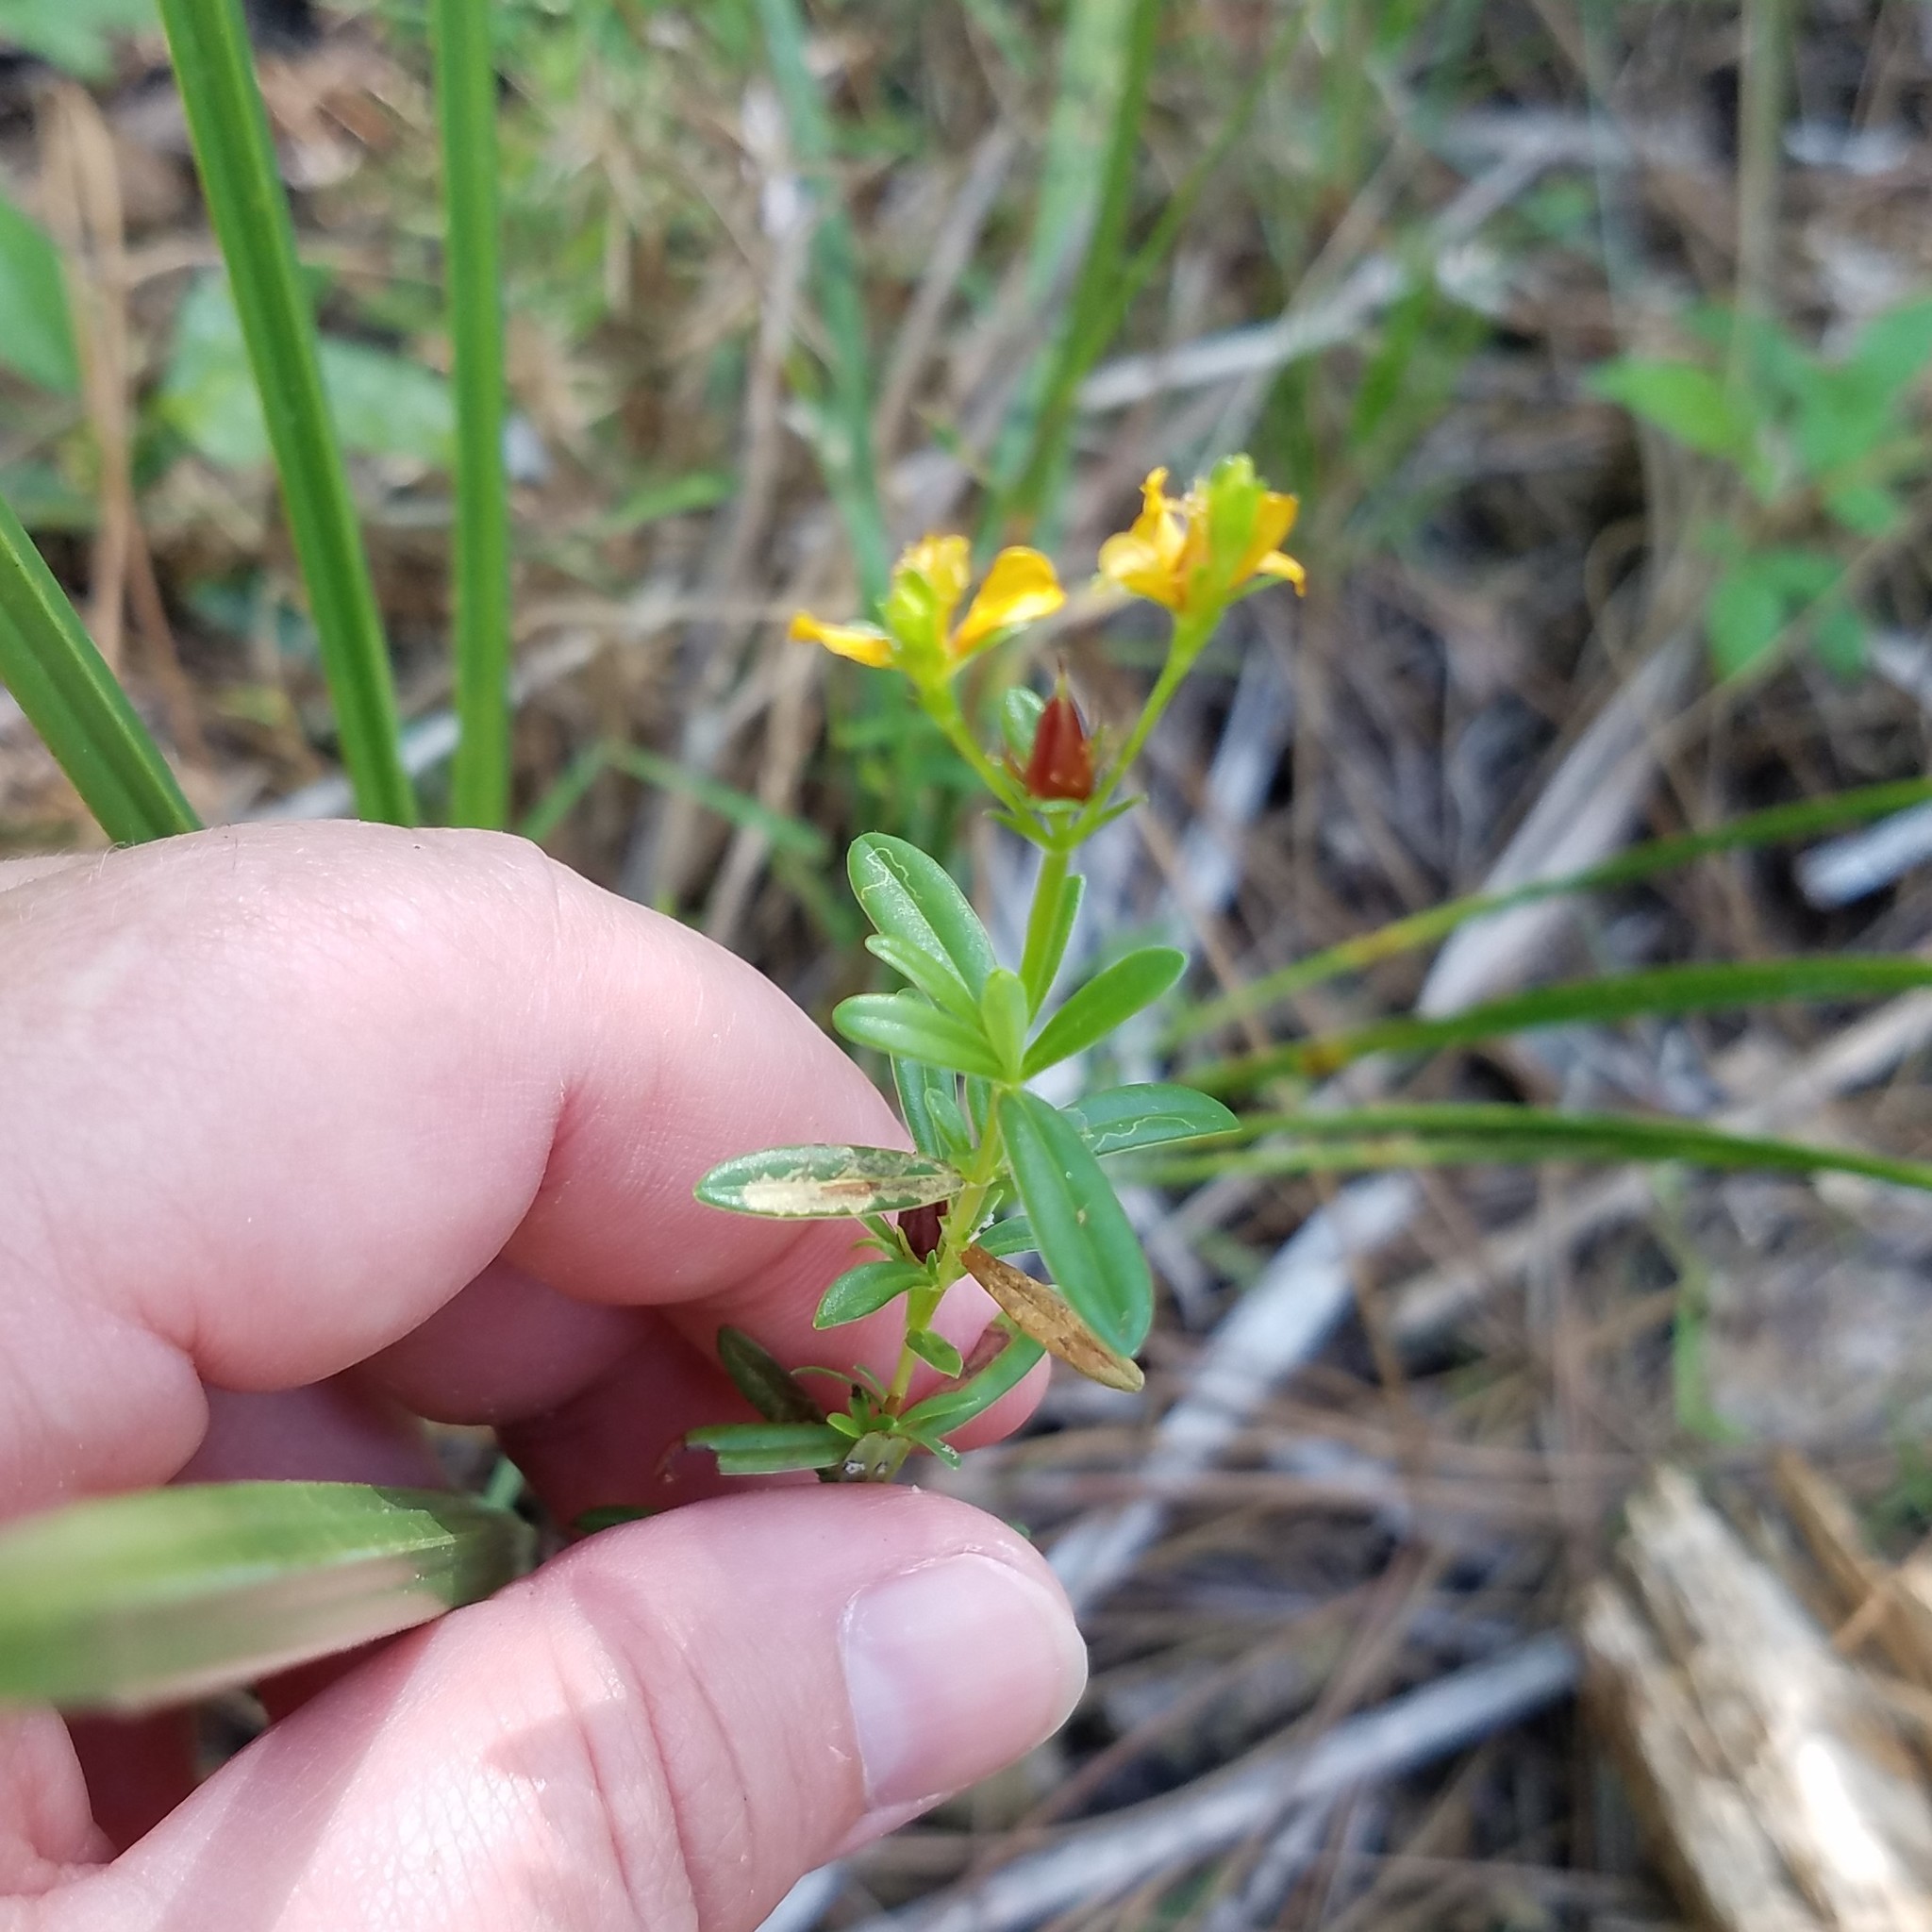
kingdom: Plantae
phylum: Tracheophyta
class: Magnoliopsida
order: Malpighiales
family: Hypericaceae
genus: Hypericum
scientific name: Hypericum cistifolium
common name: Round-pod st. john's-wort
